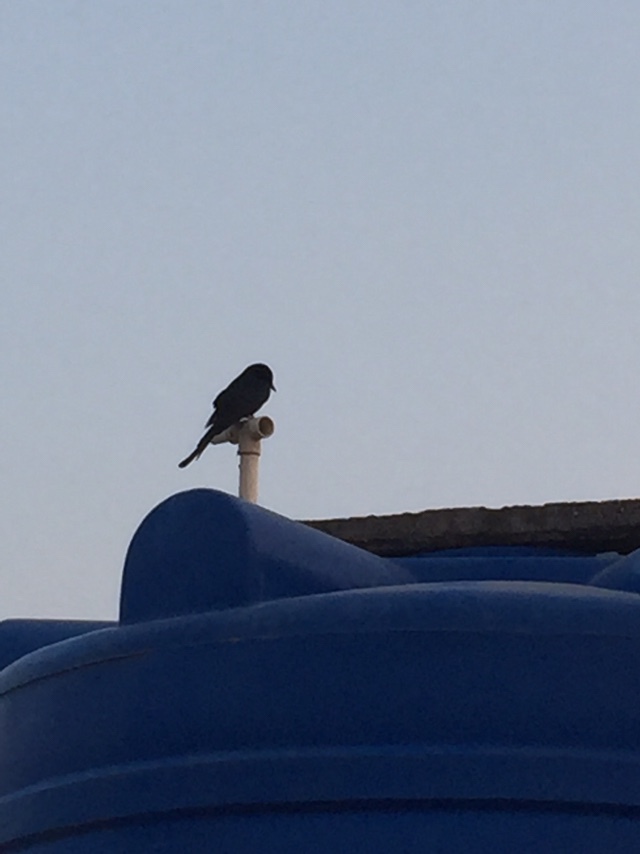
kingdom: Animalia
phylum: Chordata
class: Aves
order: Passeriformes
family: Dicruridae
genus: Dicrurus
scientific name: Dicrurus macrocercus
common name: Black drongo
